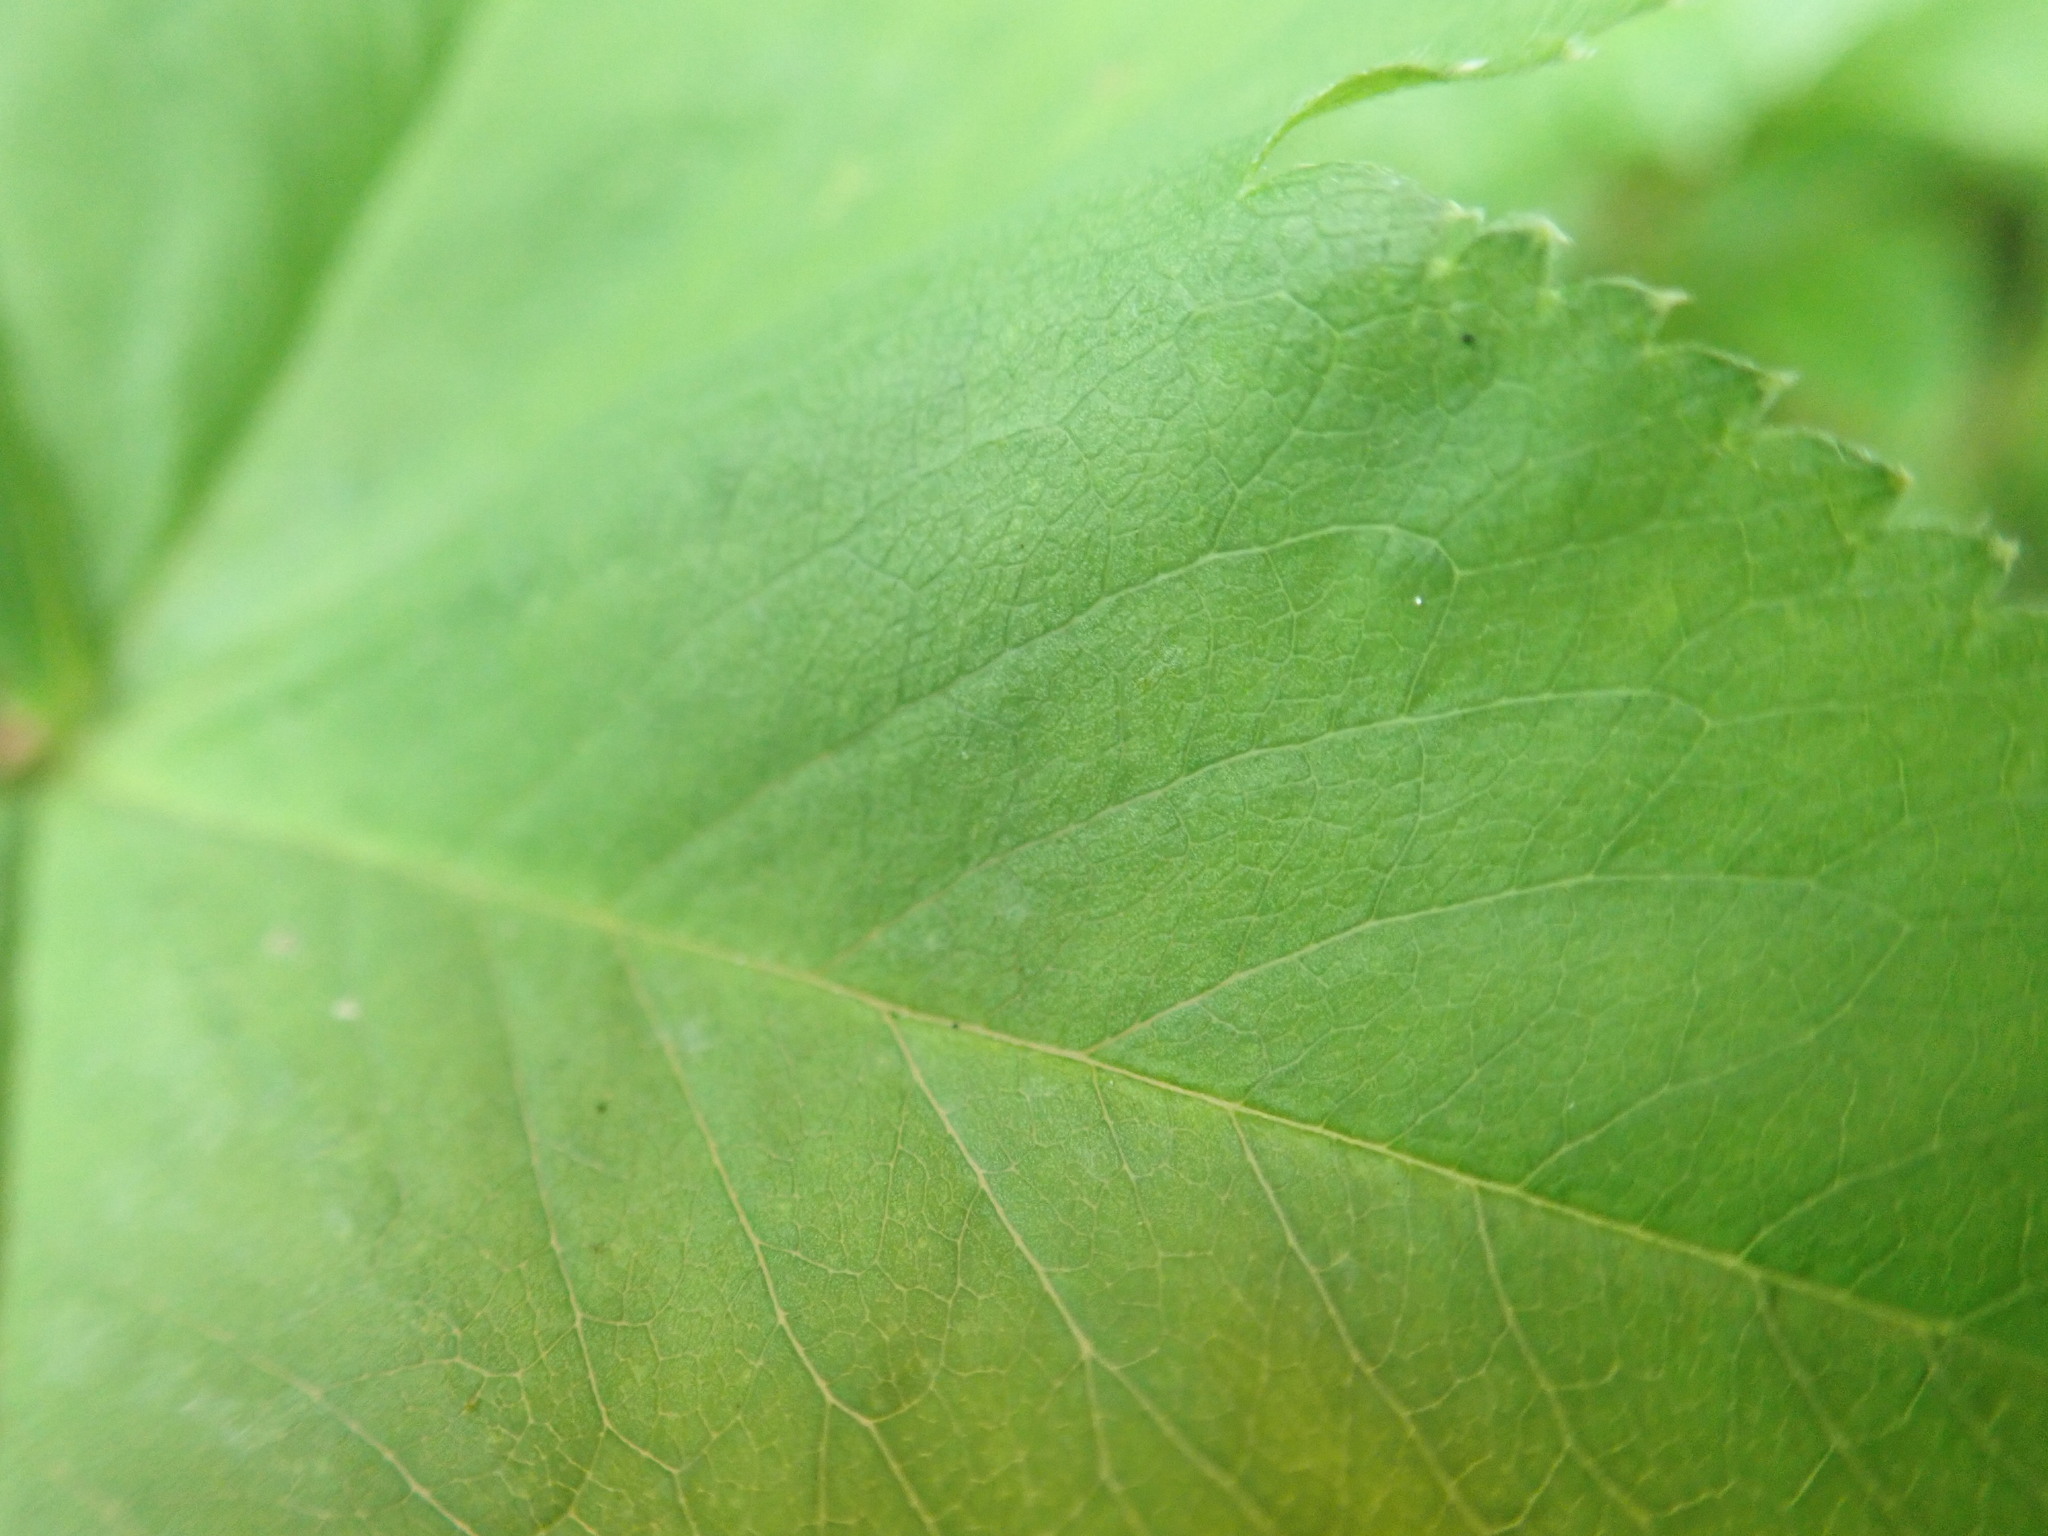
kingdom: Plantae
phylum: Tracheophyta
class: Magnoliopsida
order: Rosales
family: Rosaceae
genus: Alchemilla
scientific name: Alchemilla xanthochlora
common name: Intermediate lady's-mantle
